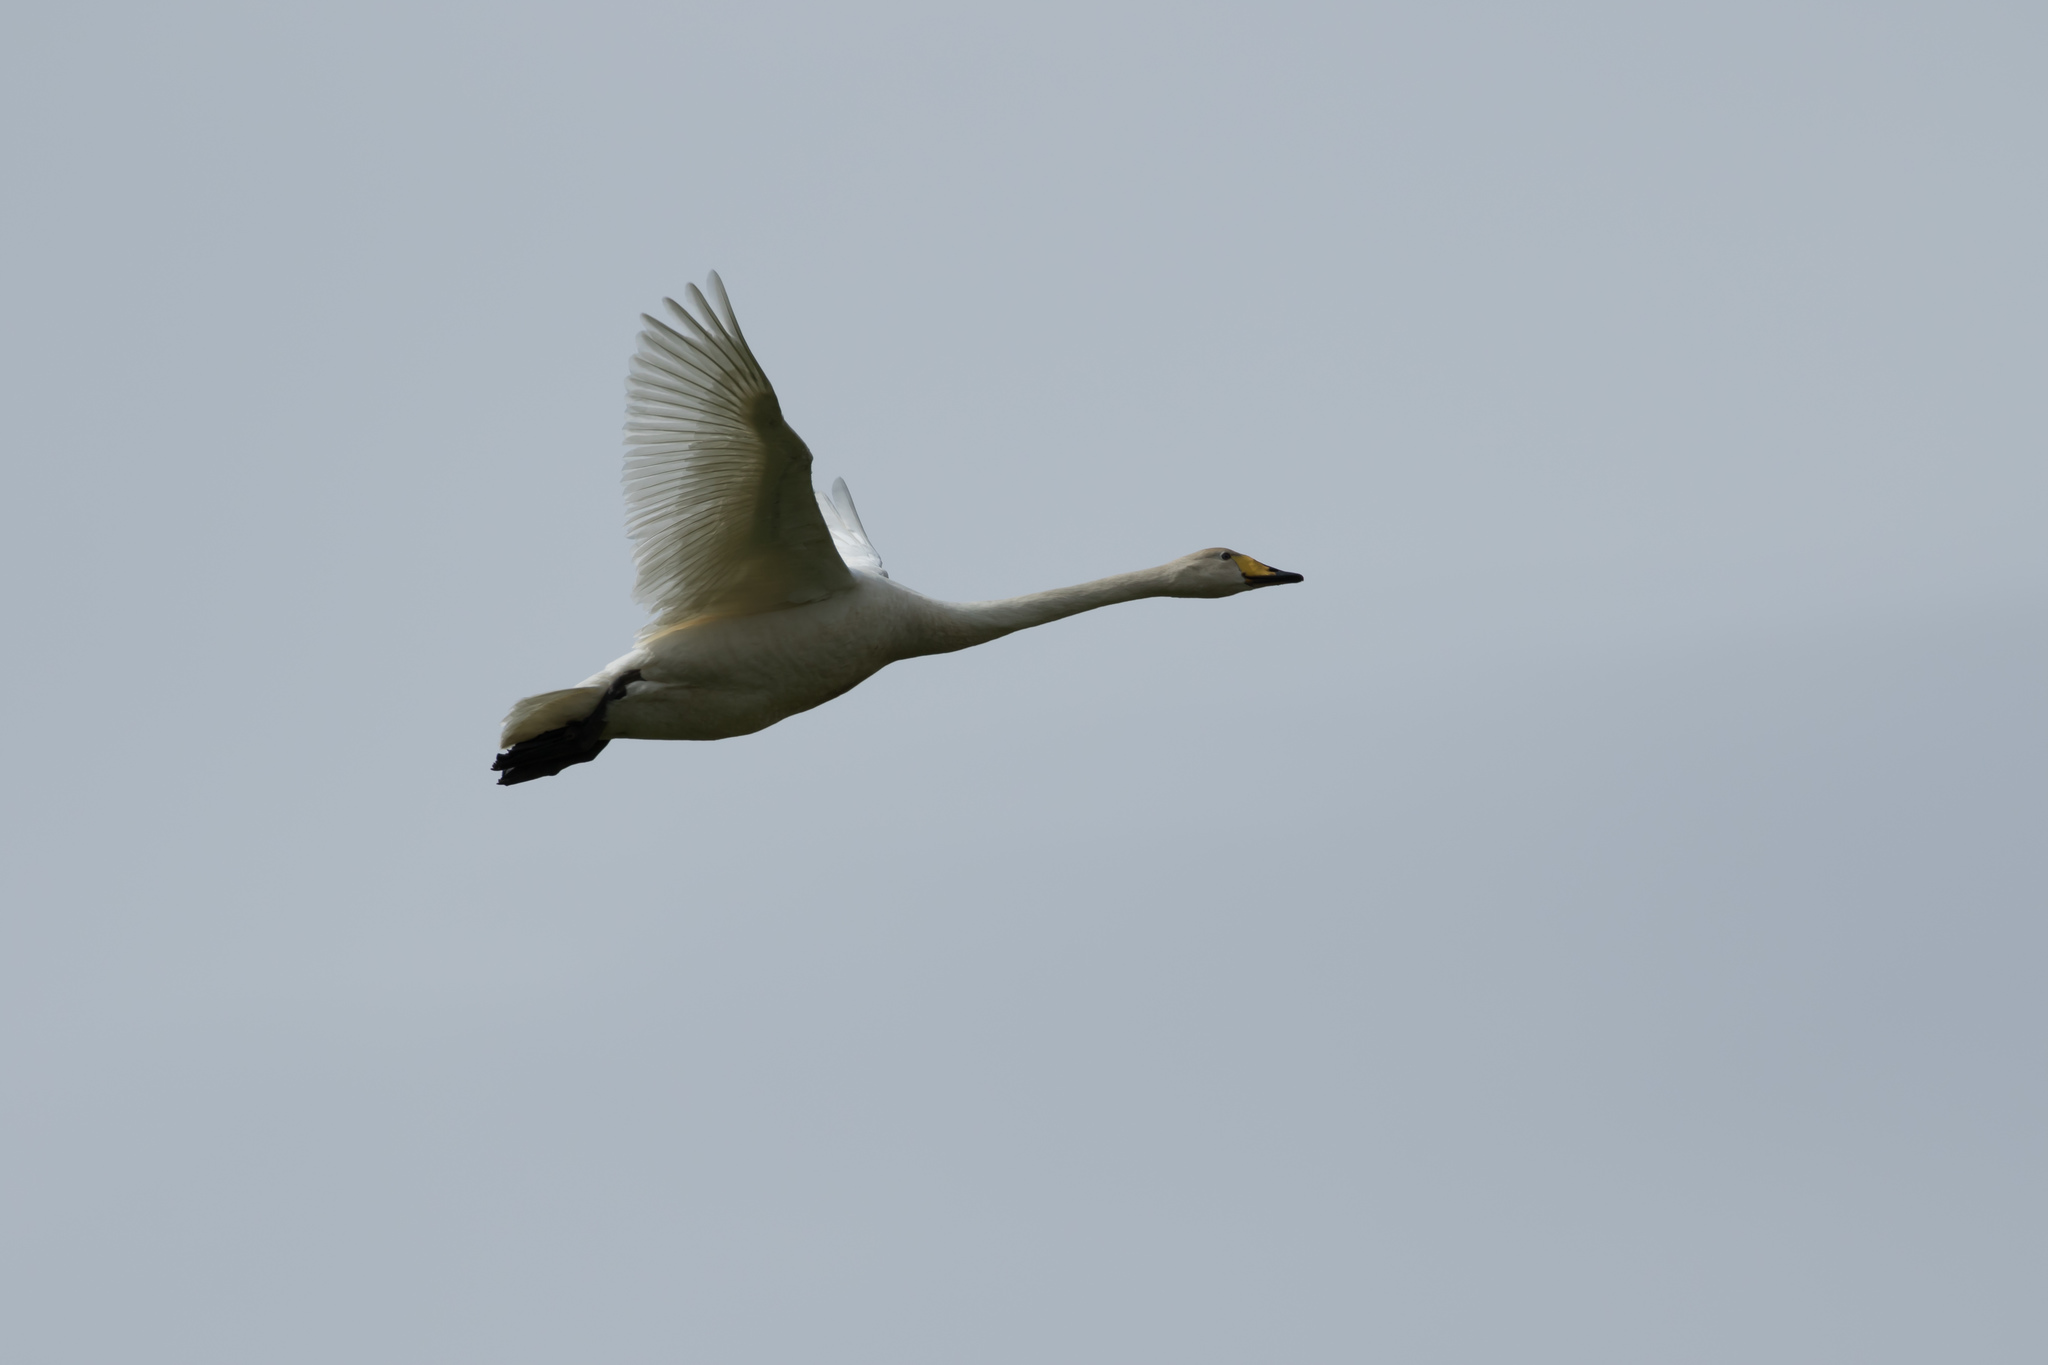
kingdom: Animalia
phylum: Chordata
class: Aves
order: Anseriformes
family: Anatidae
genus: Cygnus
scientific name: Cygnus cygnus
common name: Whooper swan
